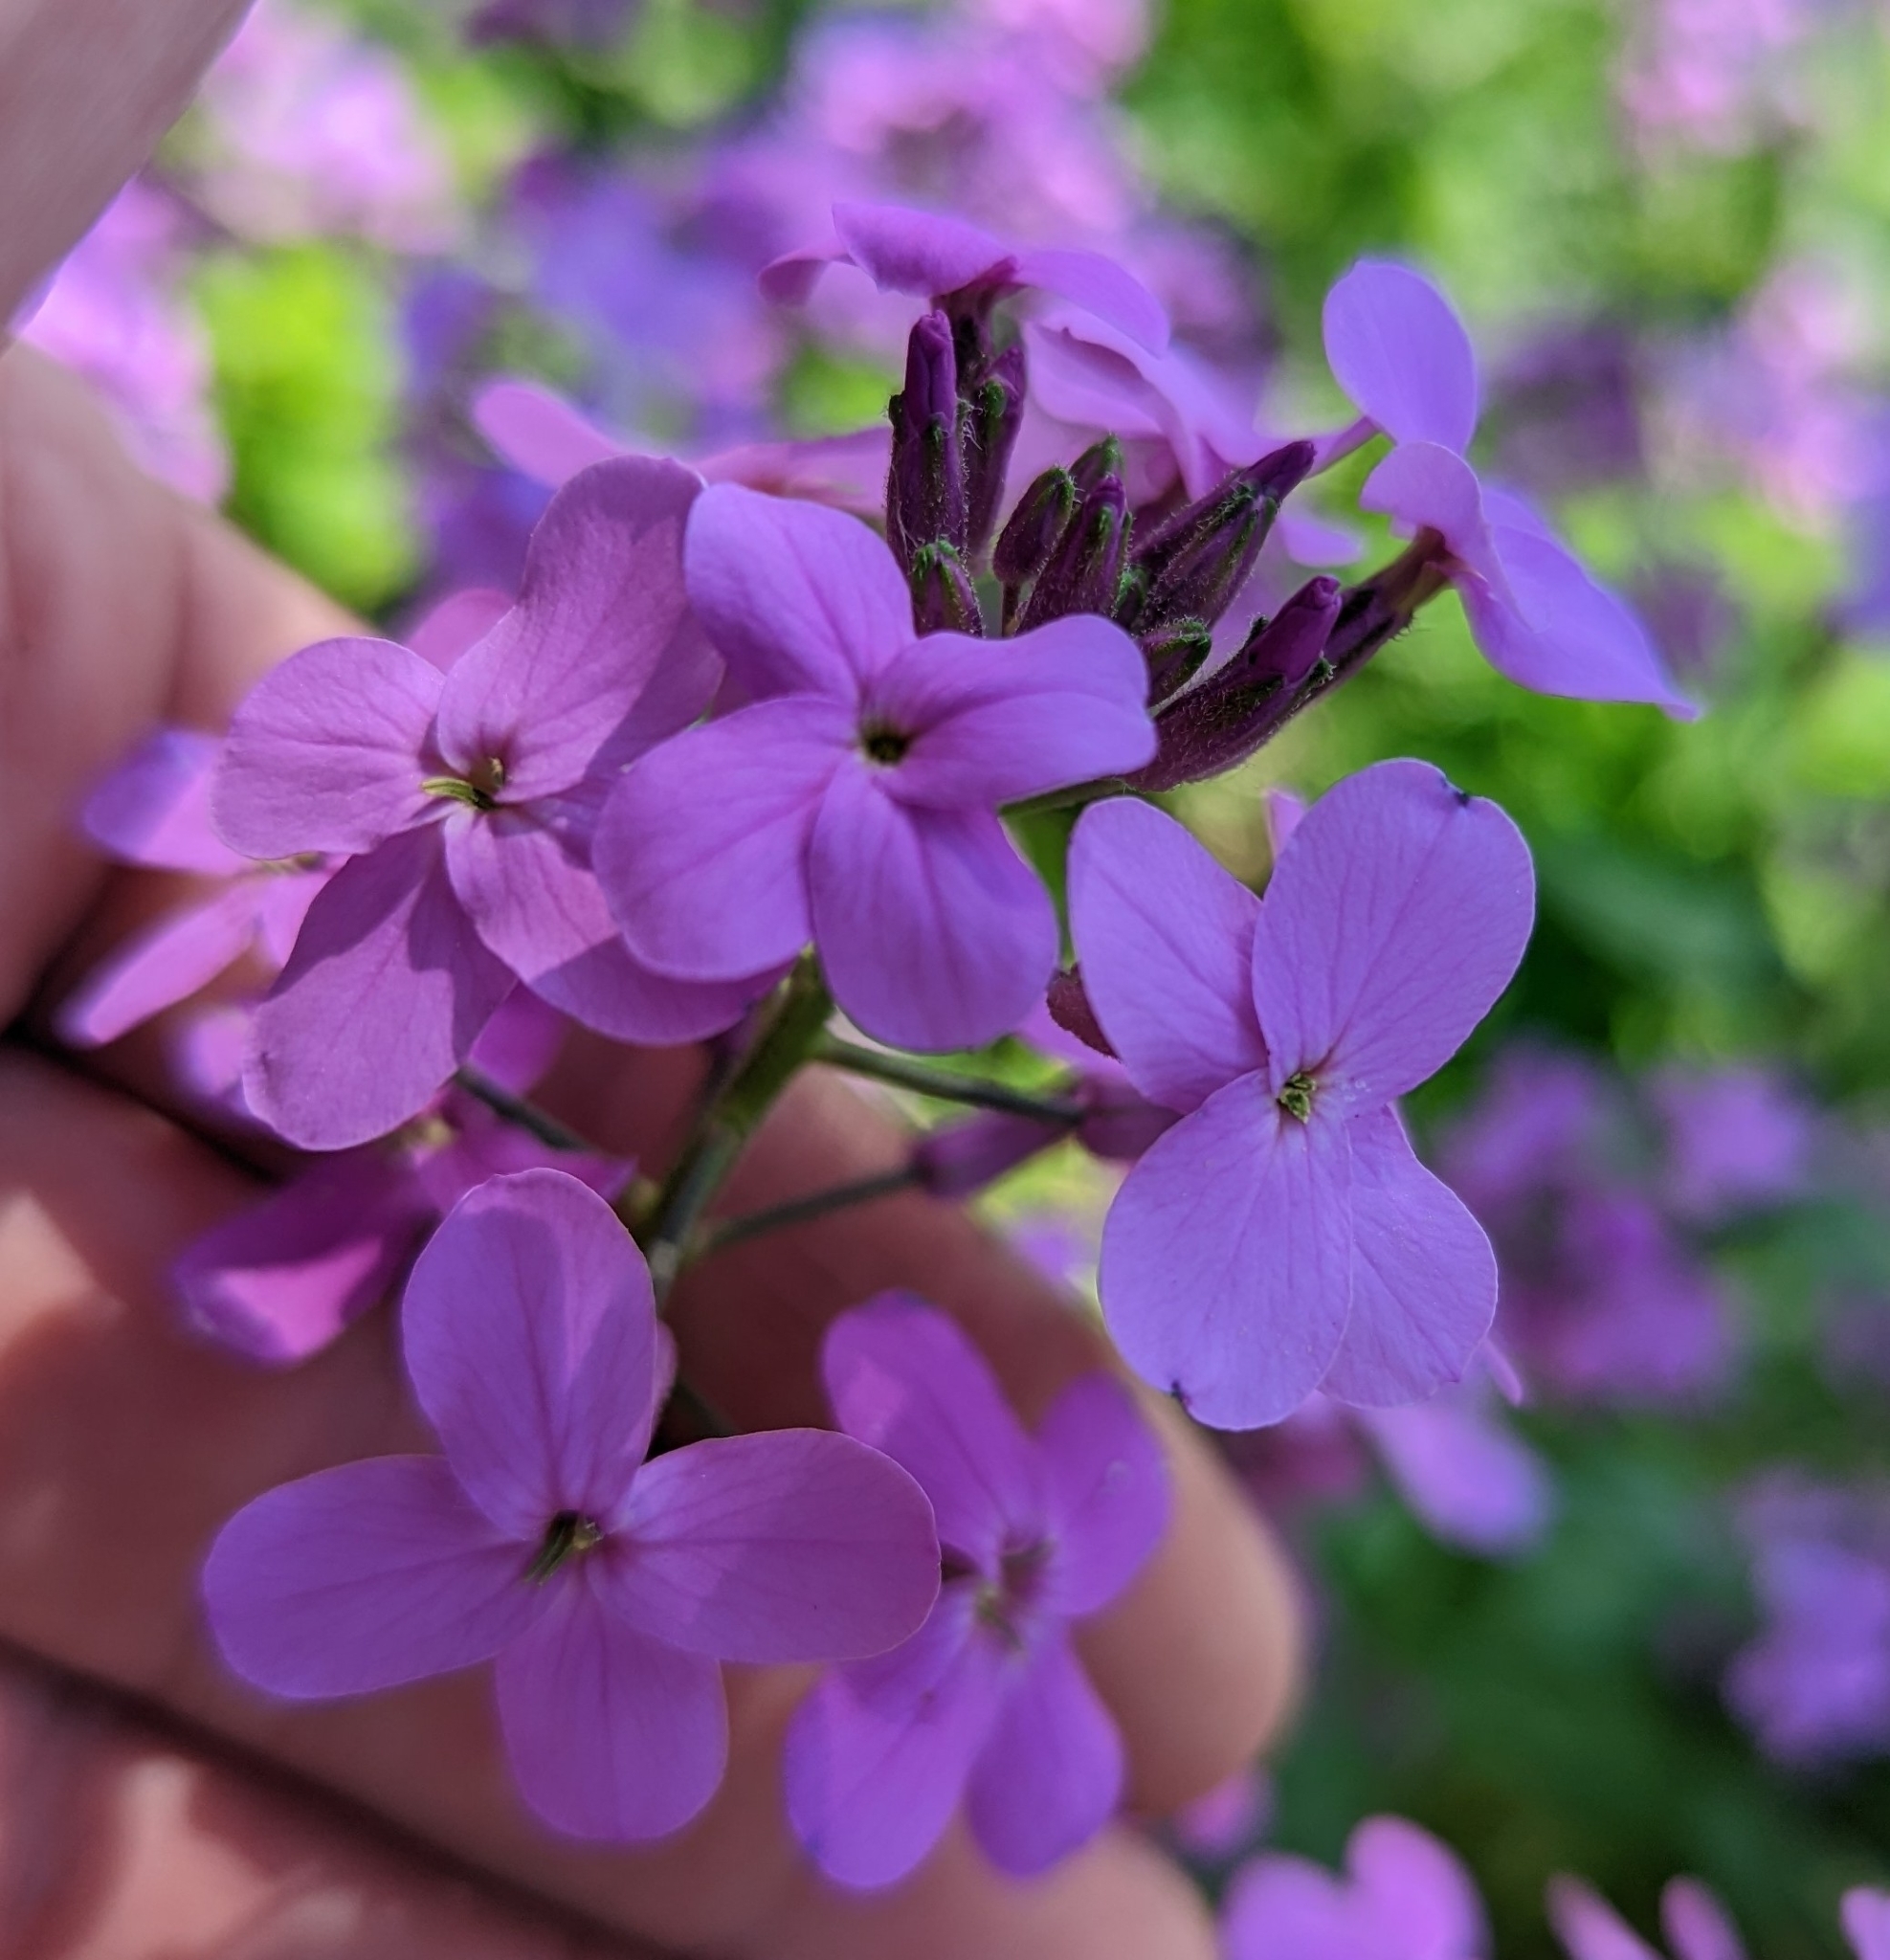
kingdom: Plantae
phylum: Tracheophyta
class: Magnoliopsida
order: Brassicales
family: Brassicaceae
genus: Hesperis
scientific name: Hesperis matronalis
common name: Dame's-violet
